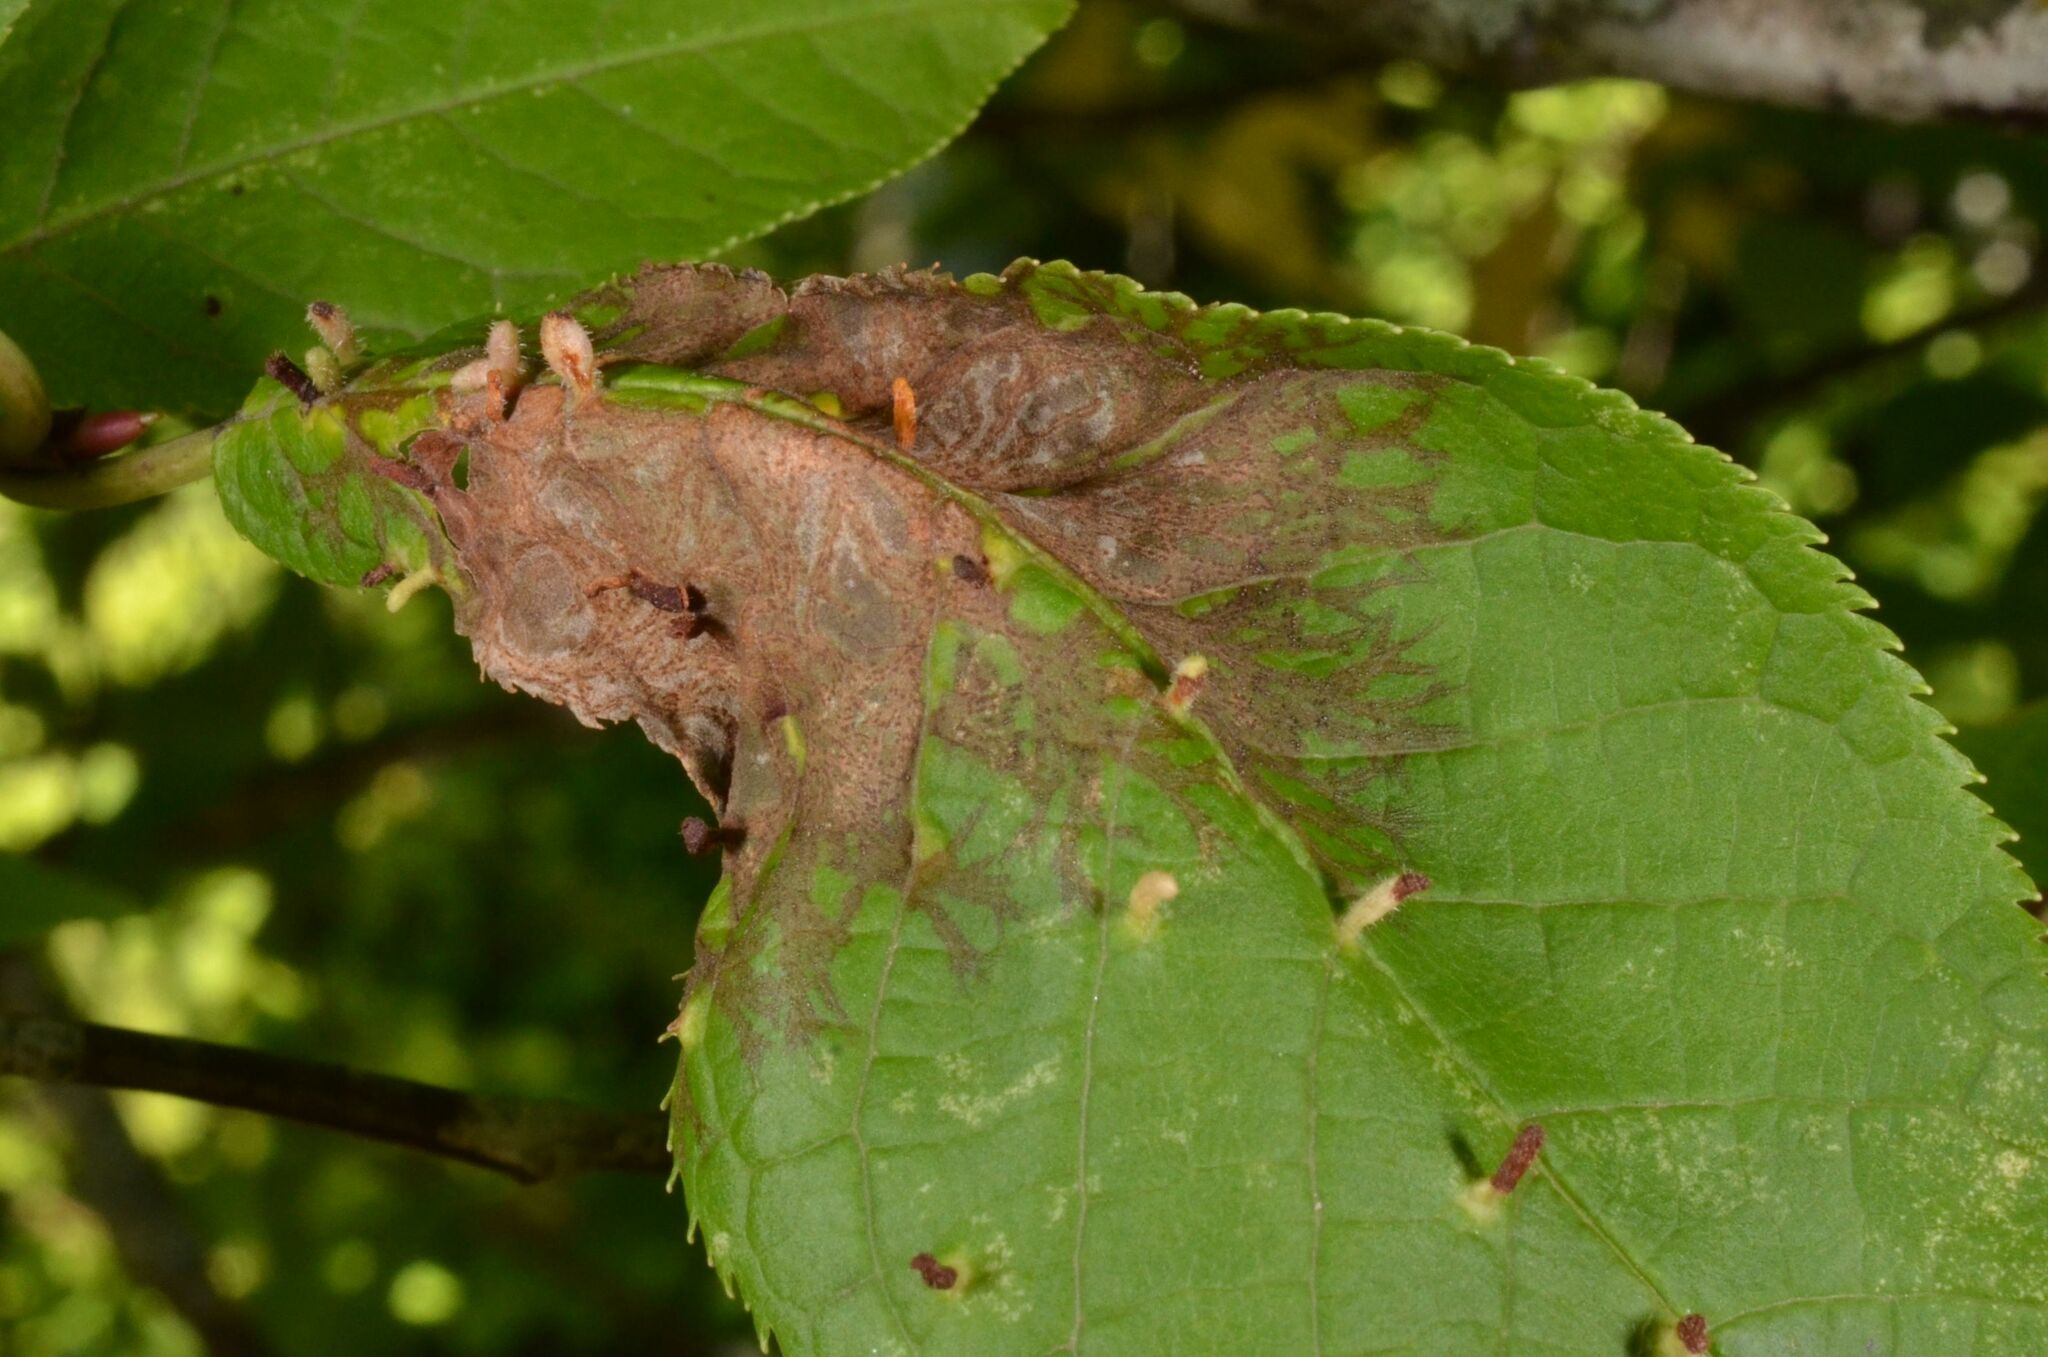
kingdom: Fungi
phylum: Ascomycota
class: Sordariomycetes
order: Diaporthales
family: Gnomoniaceae
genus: Asteroma
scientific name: Asteroma padi
